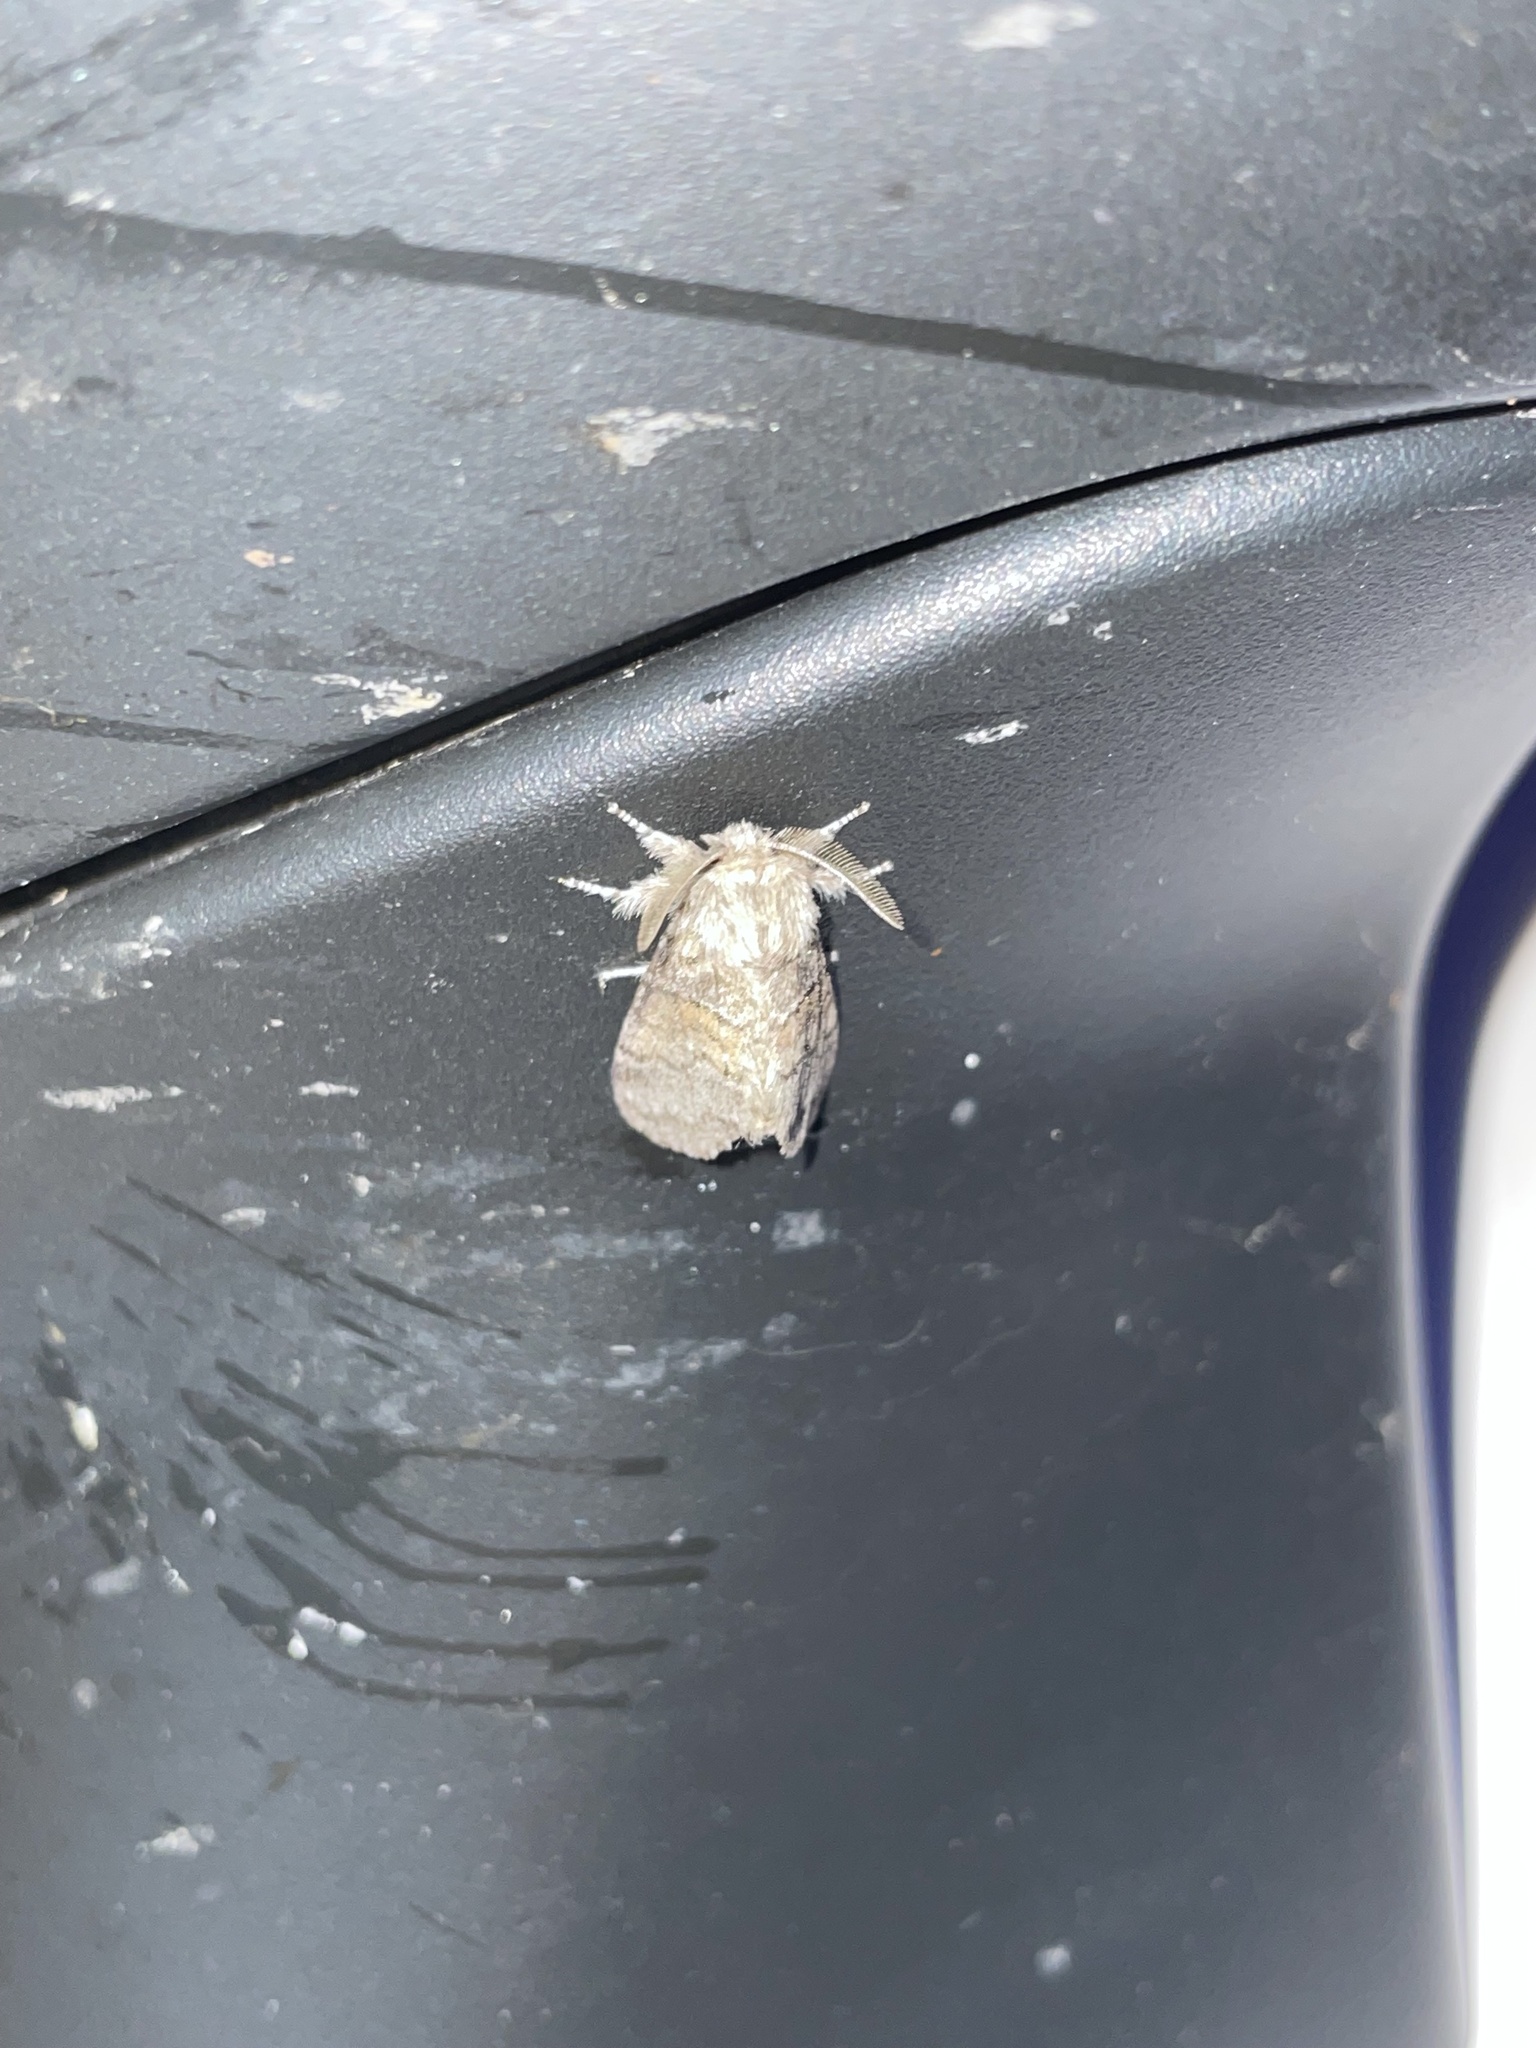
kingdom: Animalia
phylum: Arthropoda
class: Insecta
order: Lepidoptera
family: Notodontidae
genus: Gluphisia
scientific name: Gluphisia septentrionis
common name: Common gluphisia
